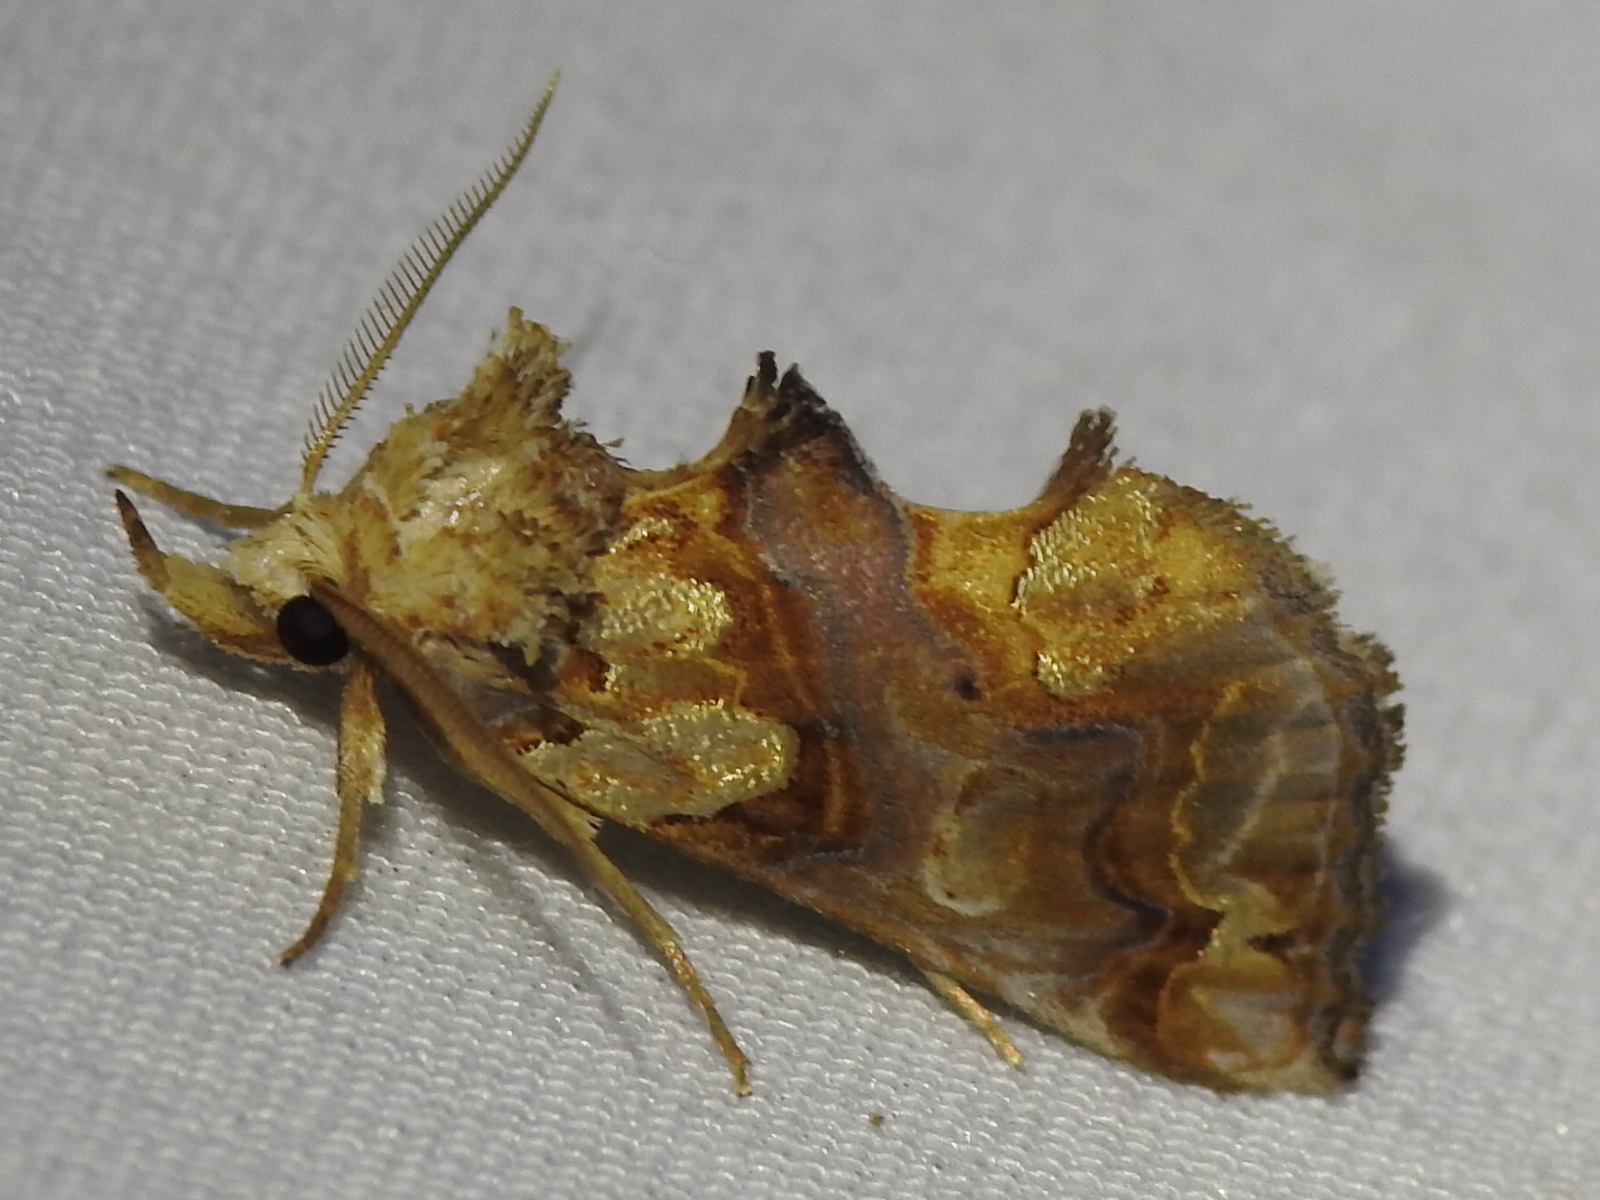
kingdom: Animalia
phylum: Arthropoda
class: Insecta
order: Lepidoptera
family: Erebidae
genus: Plusiodonta
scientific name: Plusiodonta compressipalpis
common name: Moonseed moth
